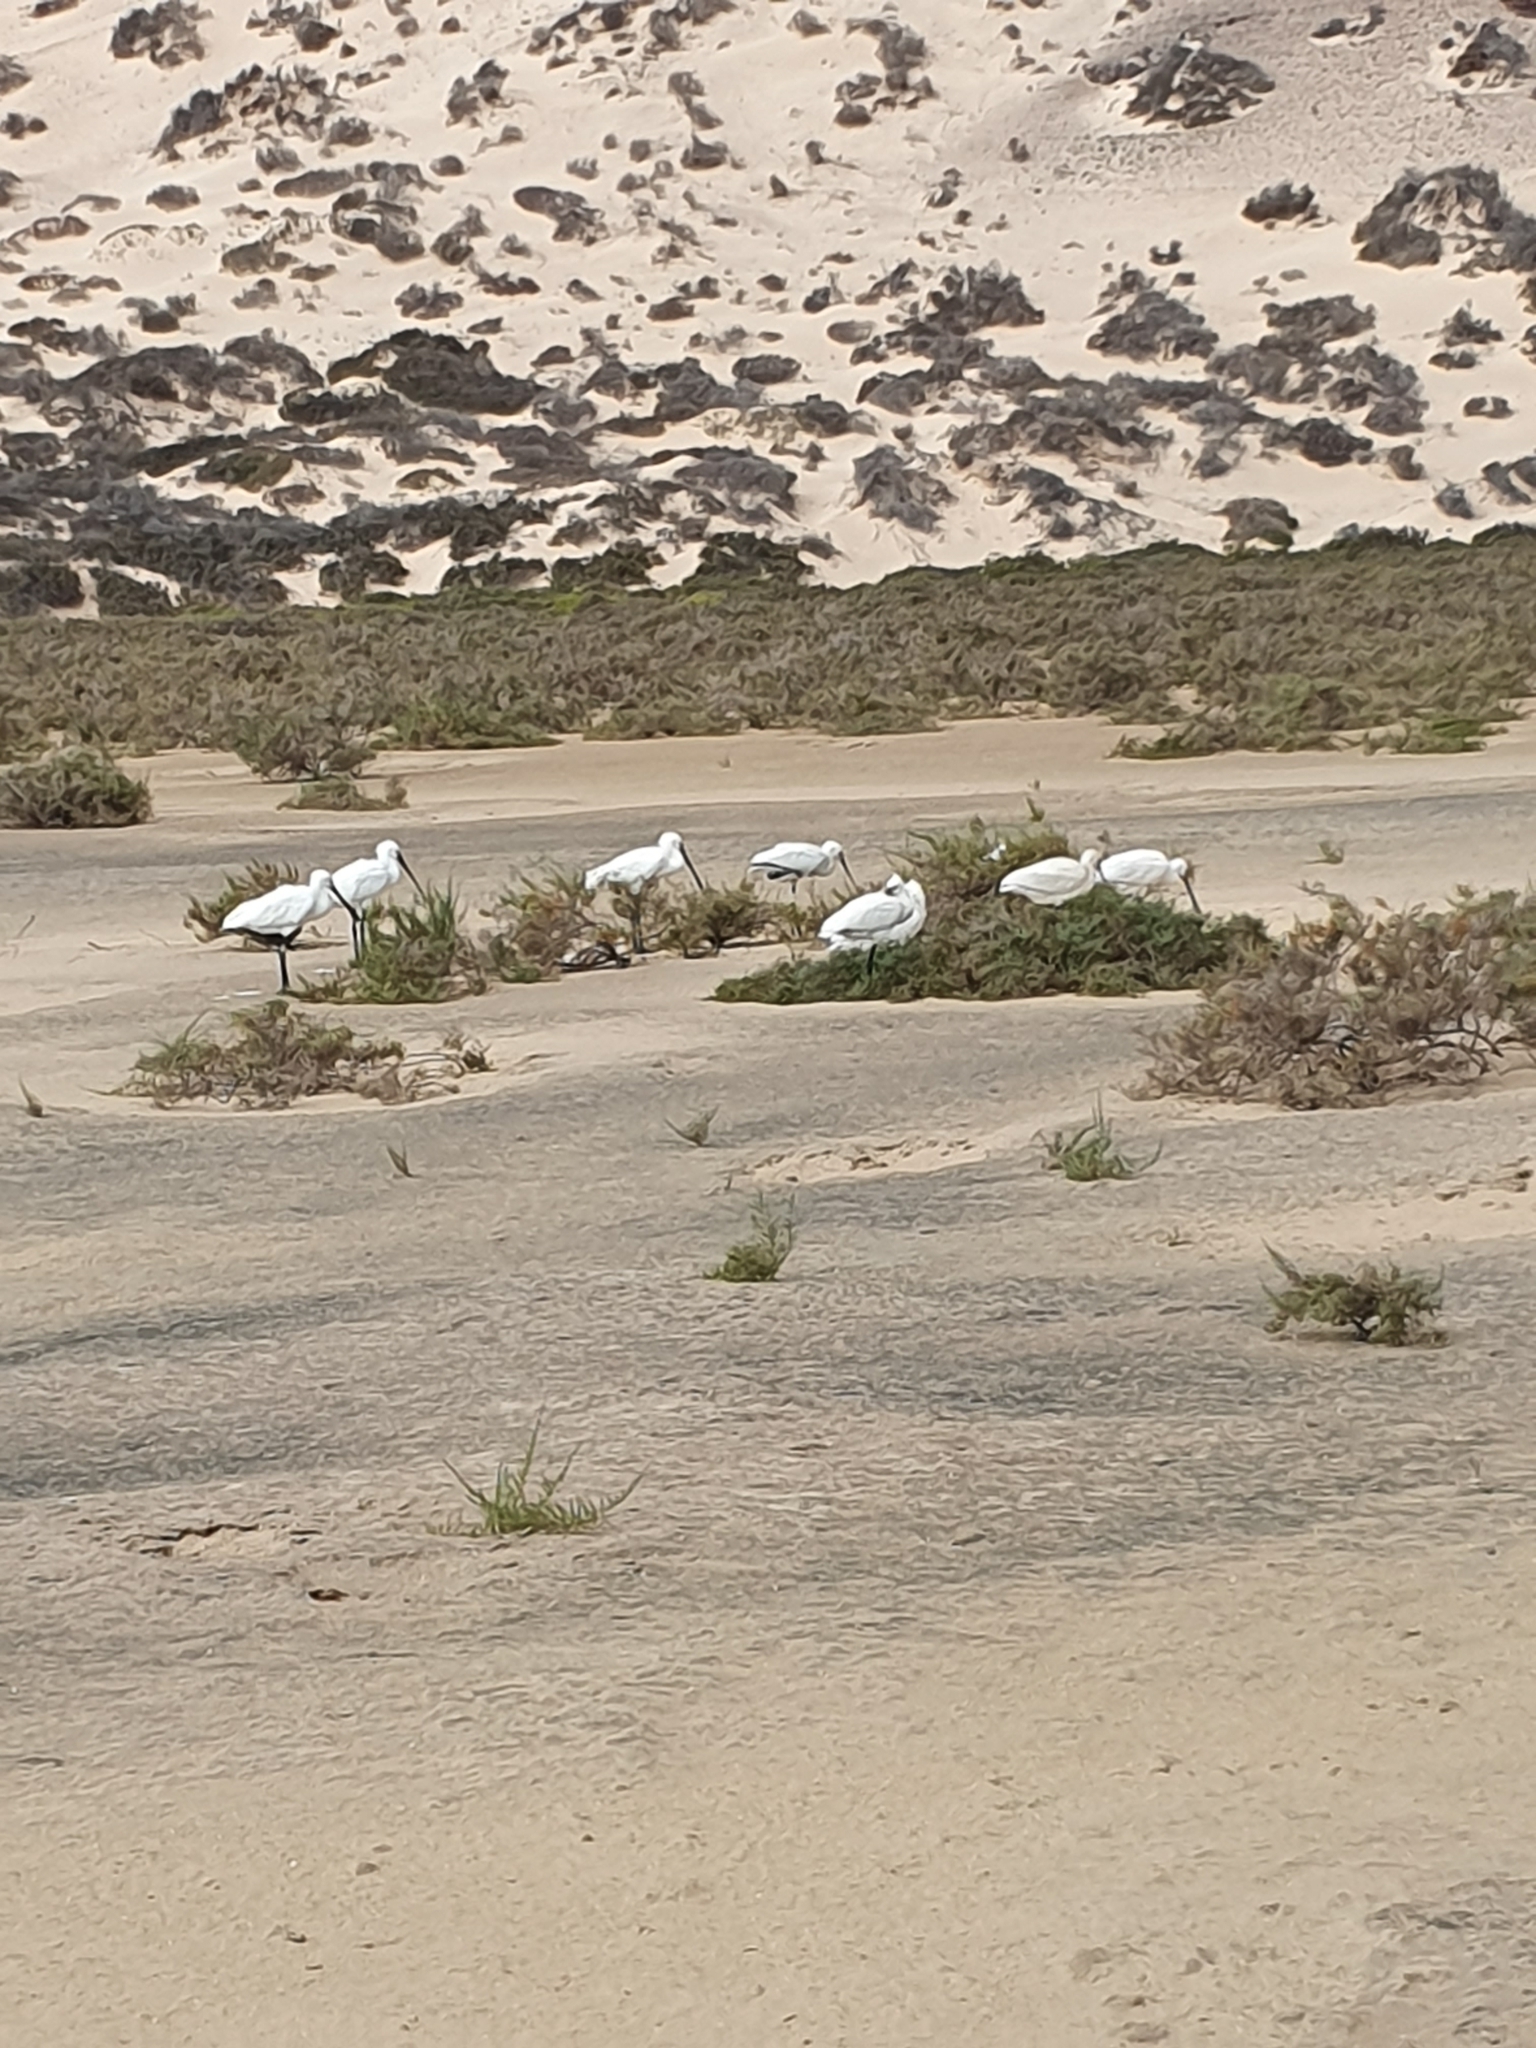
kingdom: Animalia
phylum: Chordata
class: Aves
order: Pelecaniformes
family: Threskiornithidae
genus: Platalea
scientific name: Platalea leucorodia
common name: Eurasian spoonbill
